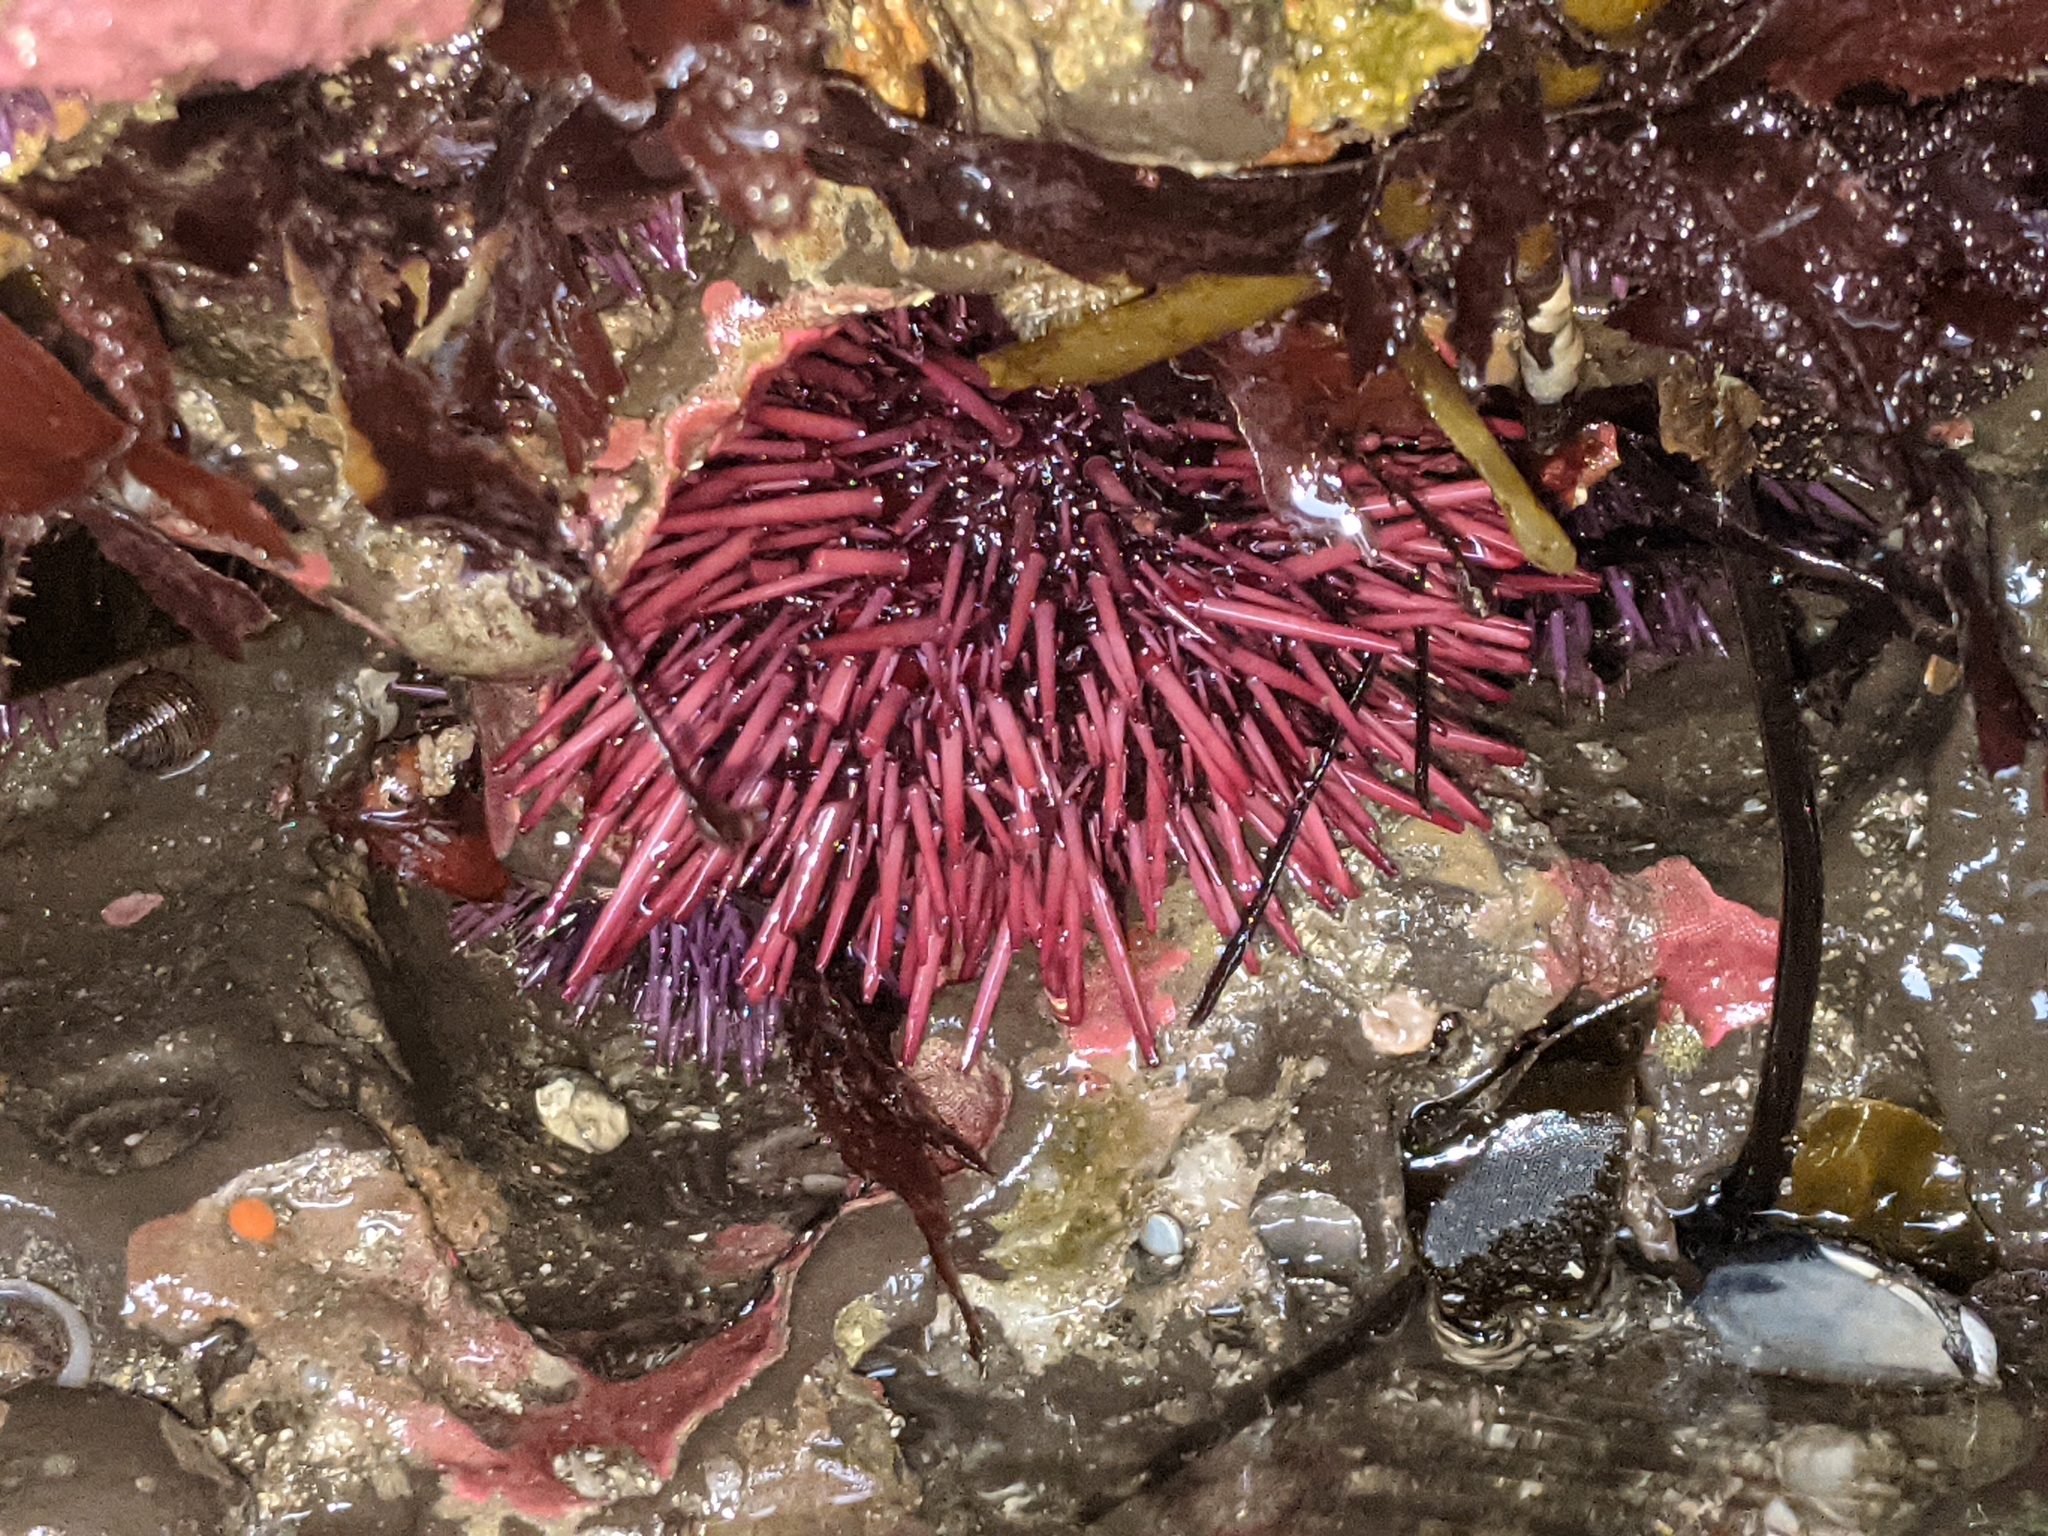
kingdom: Animalia
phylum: Echinodermata
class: Echinoidea
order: Camarodonta
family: Strongylocentrotidae
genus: Mesocentrotus
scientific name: Mesocentrotus franciscanus
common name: Red sea urchin
